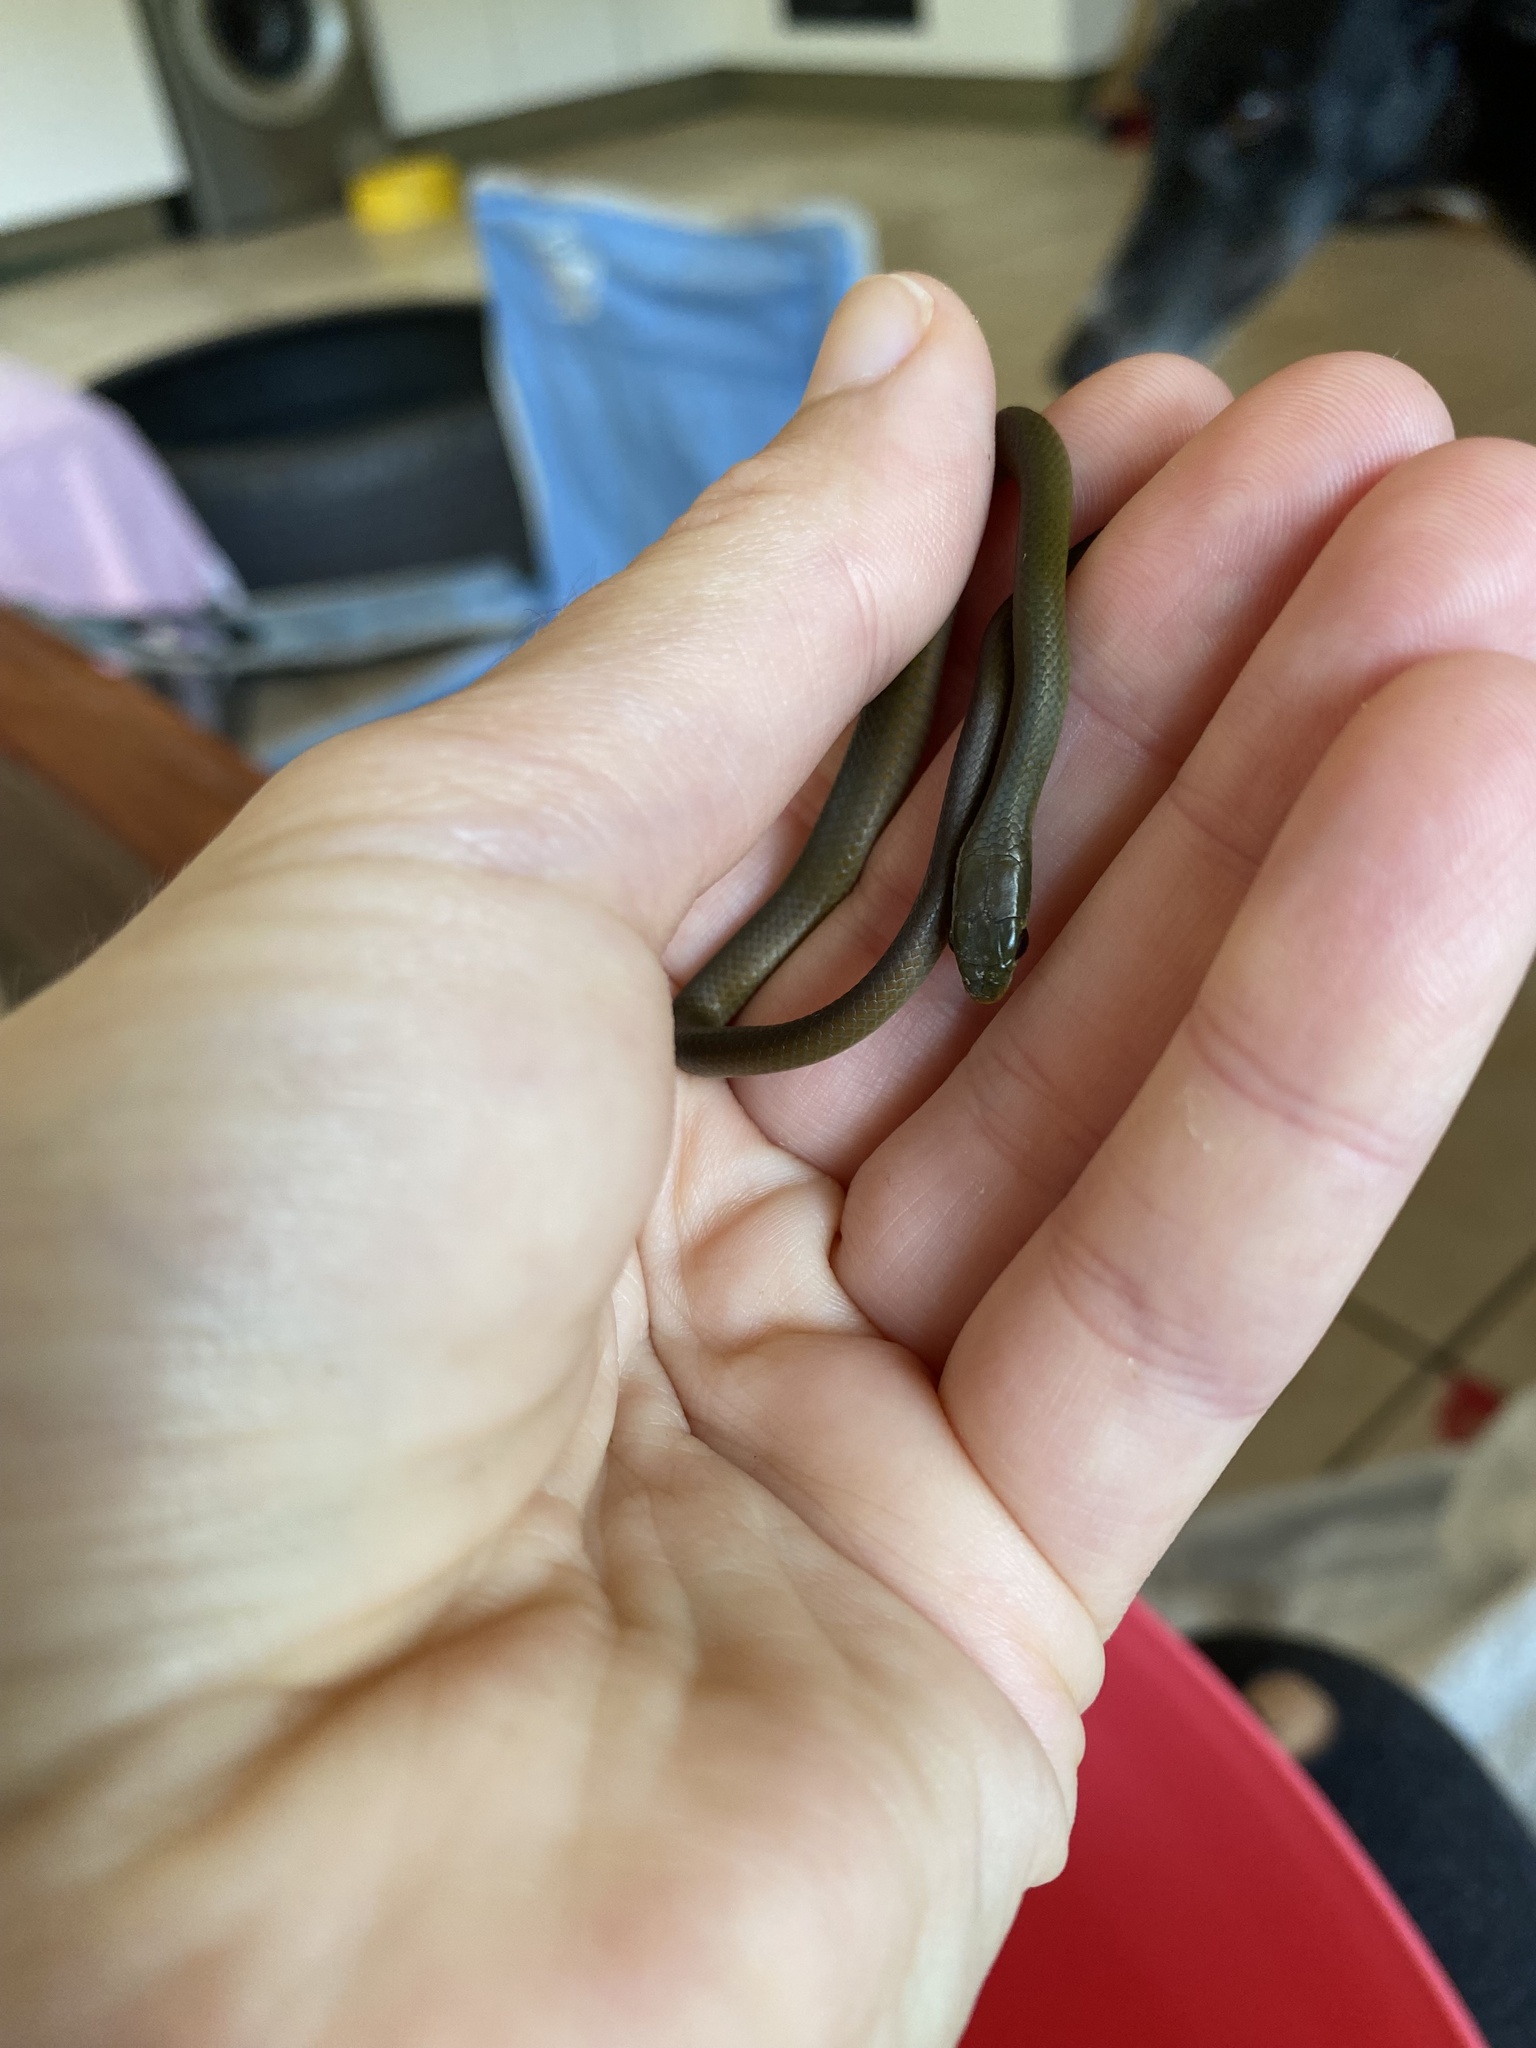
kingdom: Animalia
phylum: Chordata
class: Squamata
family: Colubridae
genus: Philothamnus
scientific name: Philothamnus hoplogaster
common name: Green water snake
